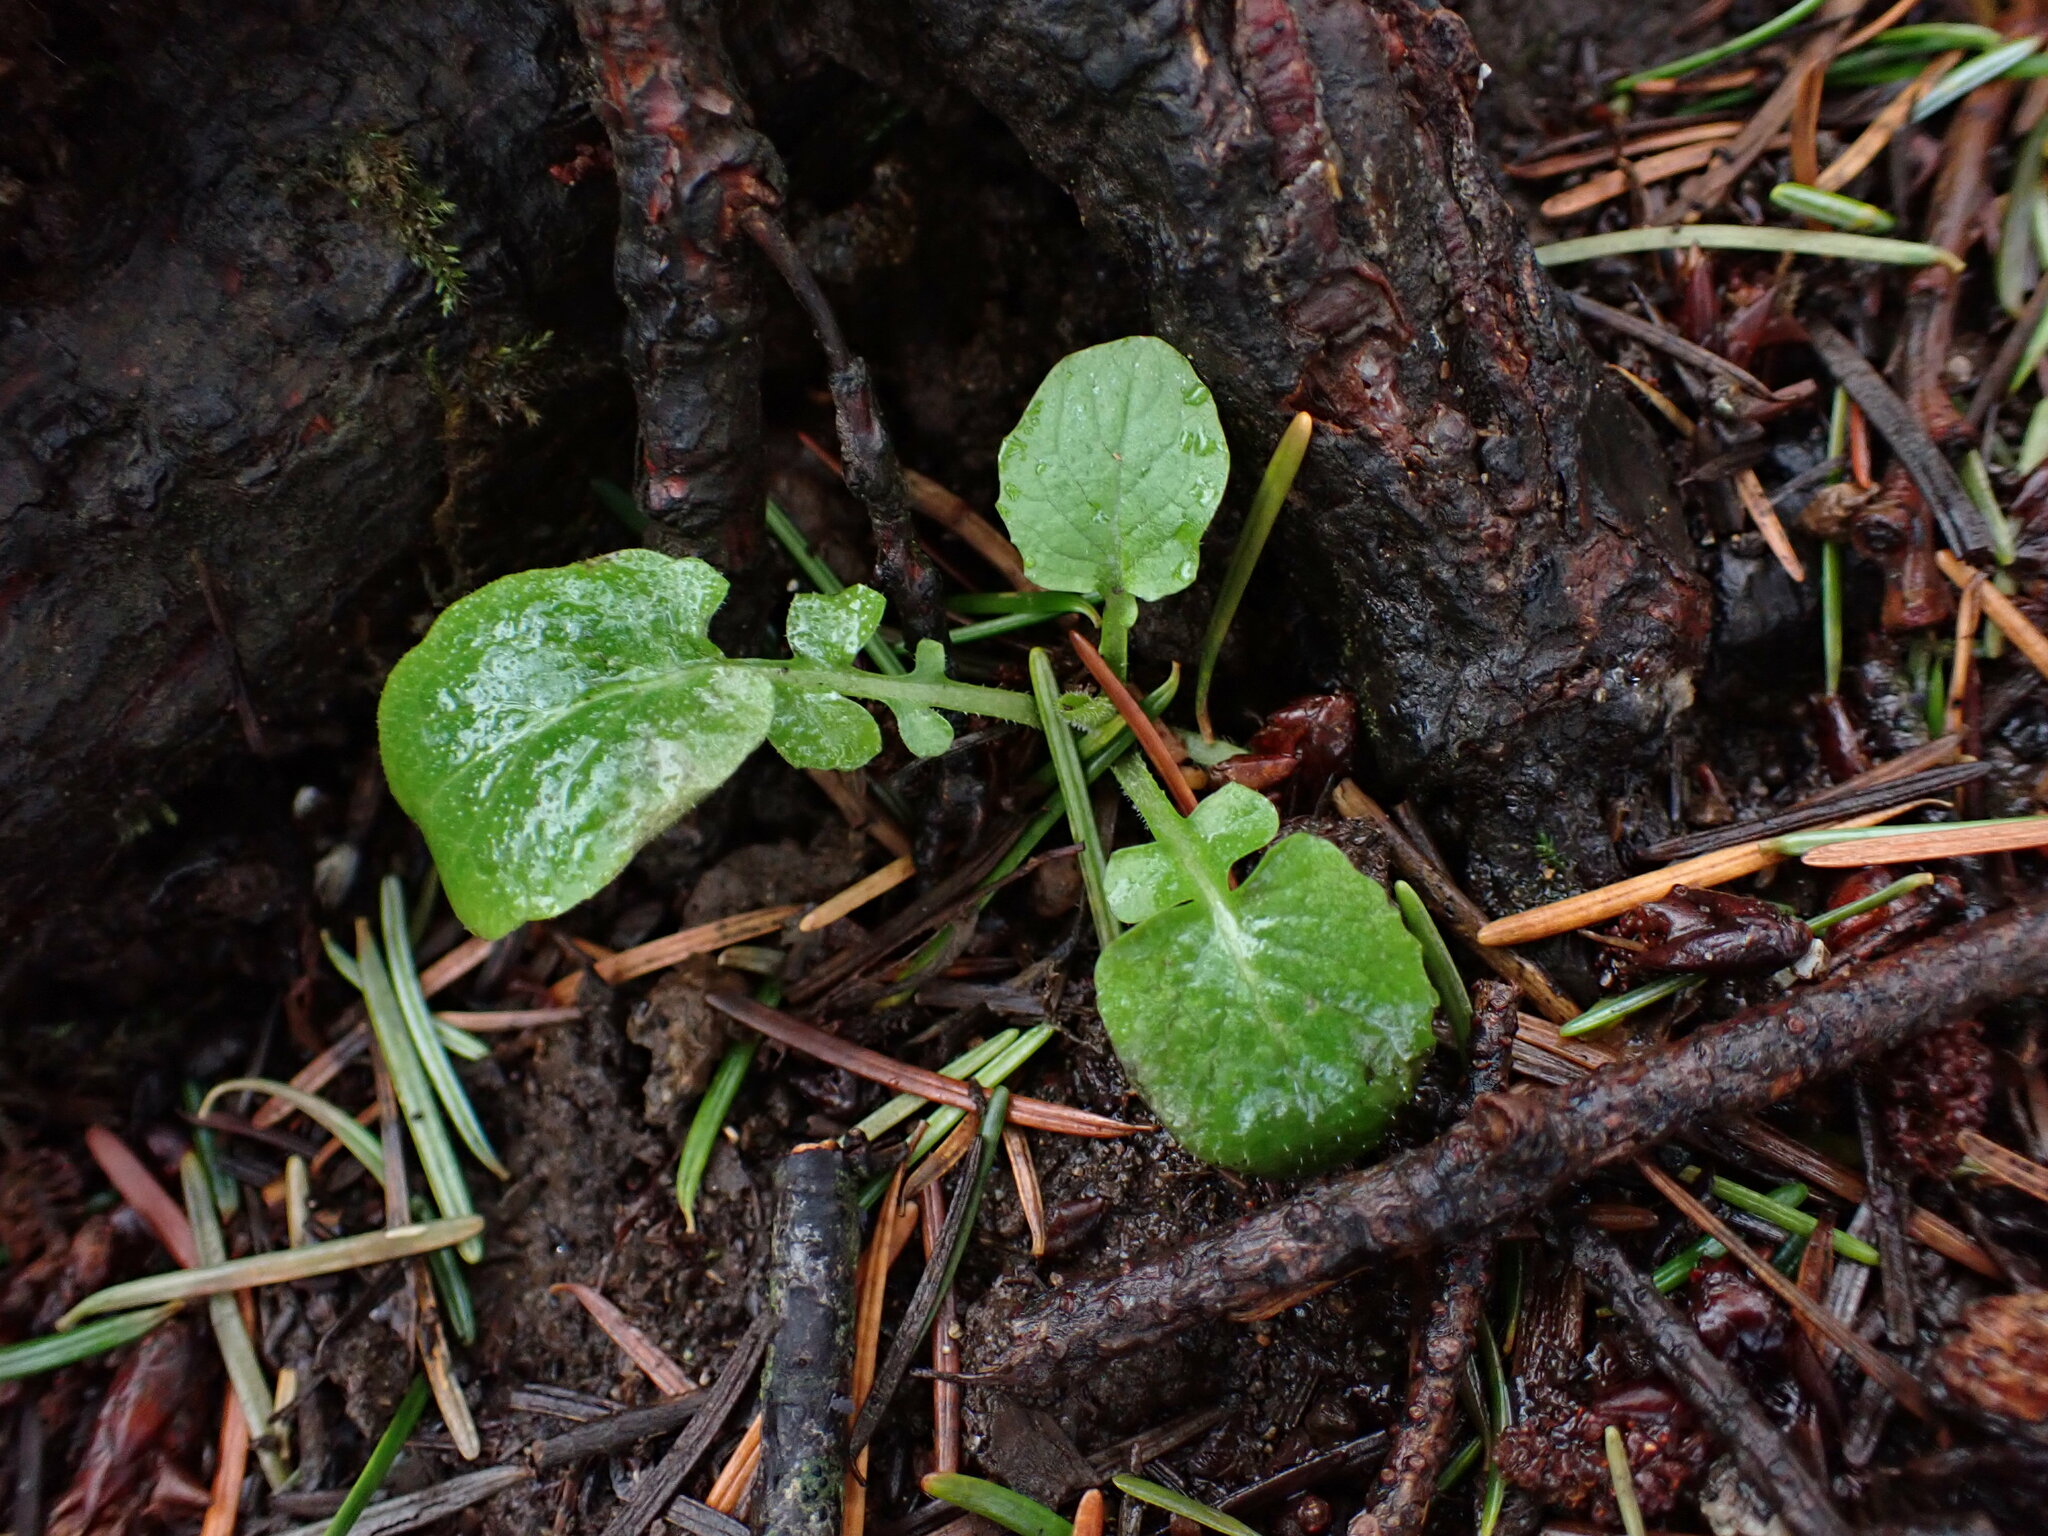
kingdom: Plantae
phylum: Tracheophyta
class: Magnoliopsida
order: Asterales
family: Asteraceae
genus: Lapsana
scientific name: Lapsana communis
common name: Nipplewort
